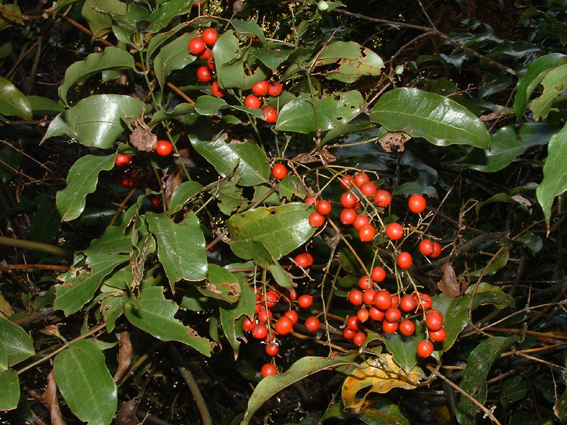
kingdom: Plantae
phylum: Tracheophyta
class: Liliopsida
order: Liliales
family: Ripogonaceae
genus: Ripogonum
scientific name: Ripogonum scandens
